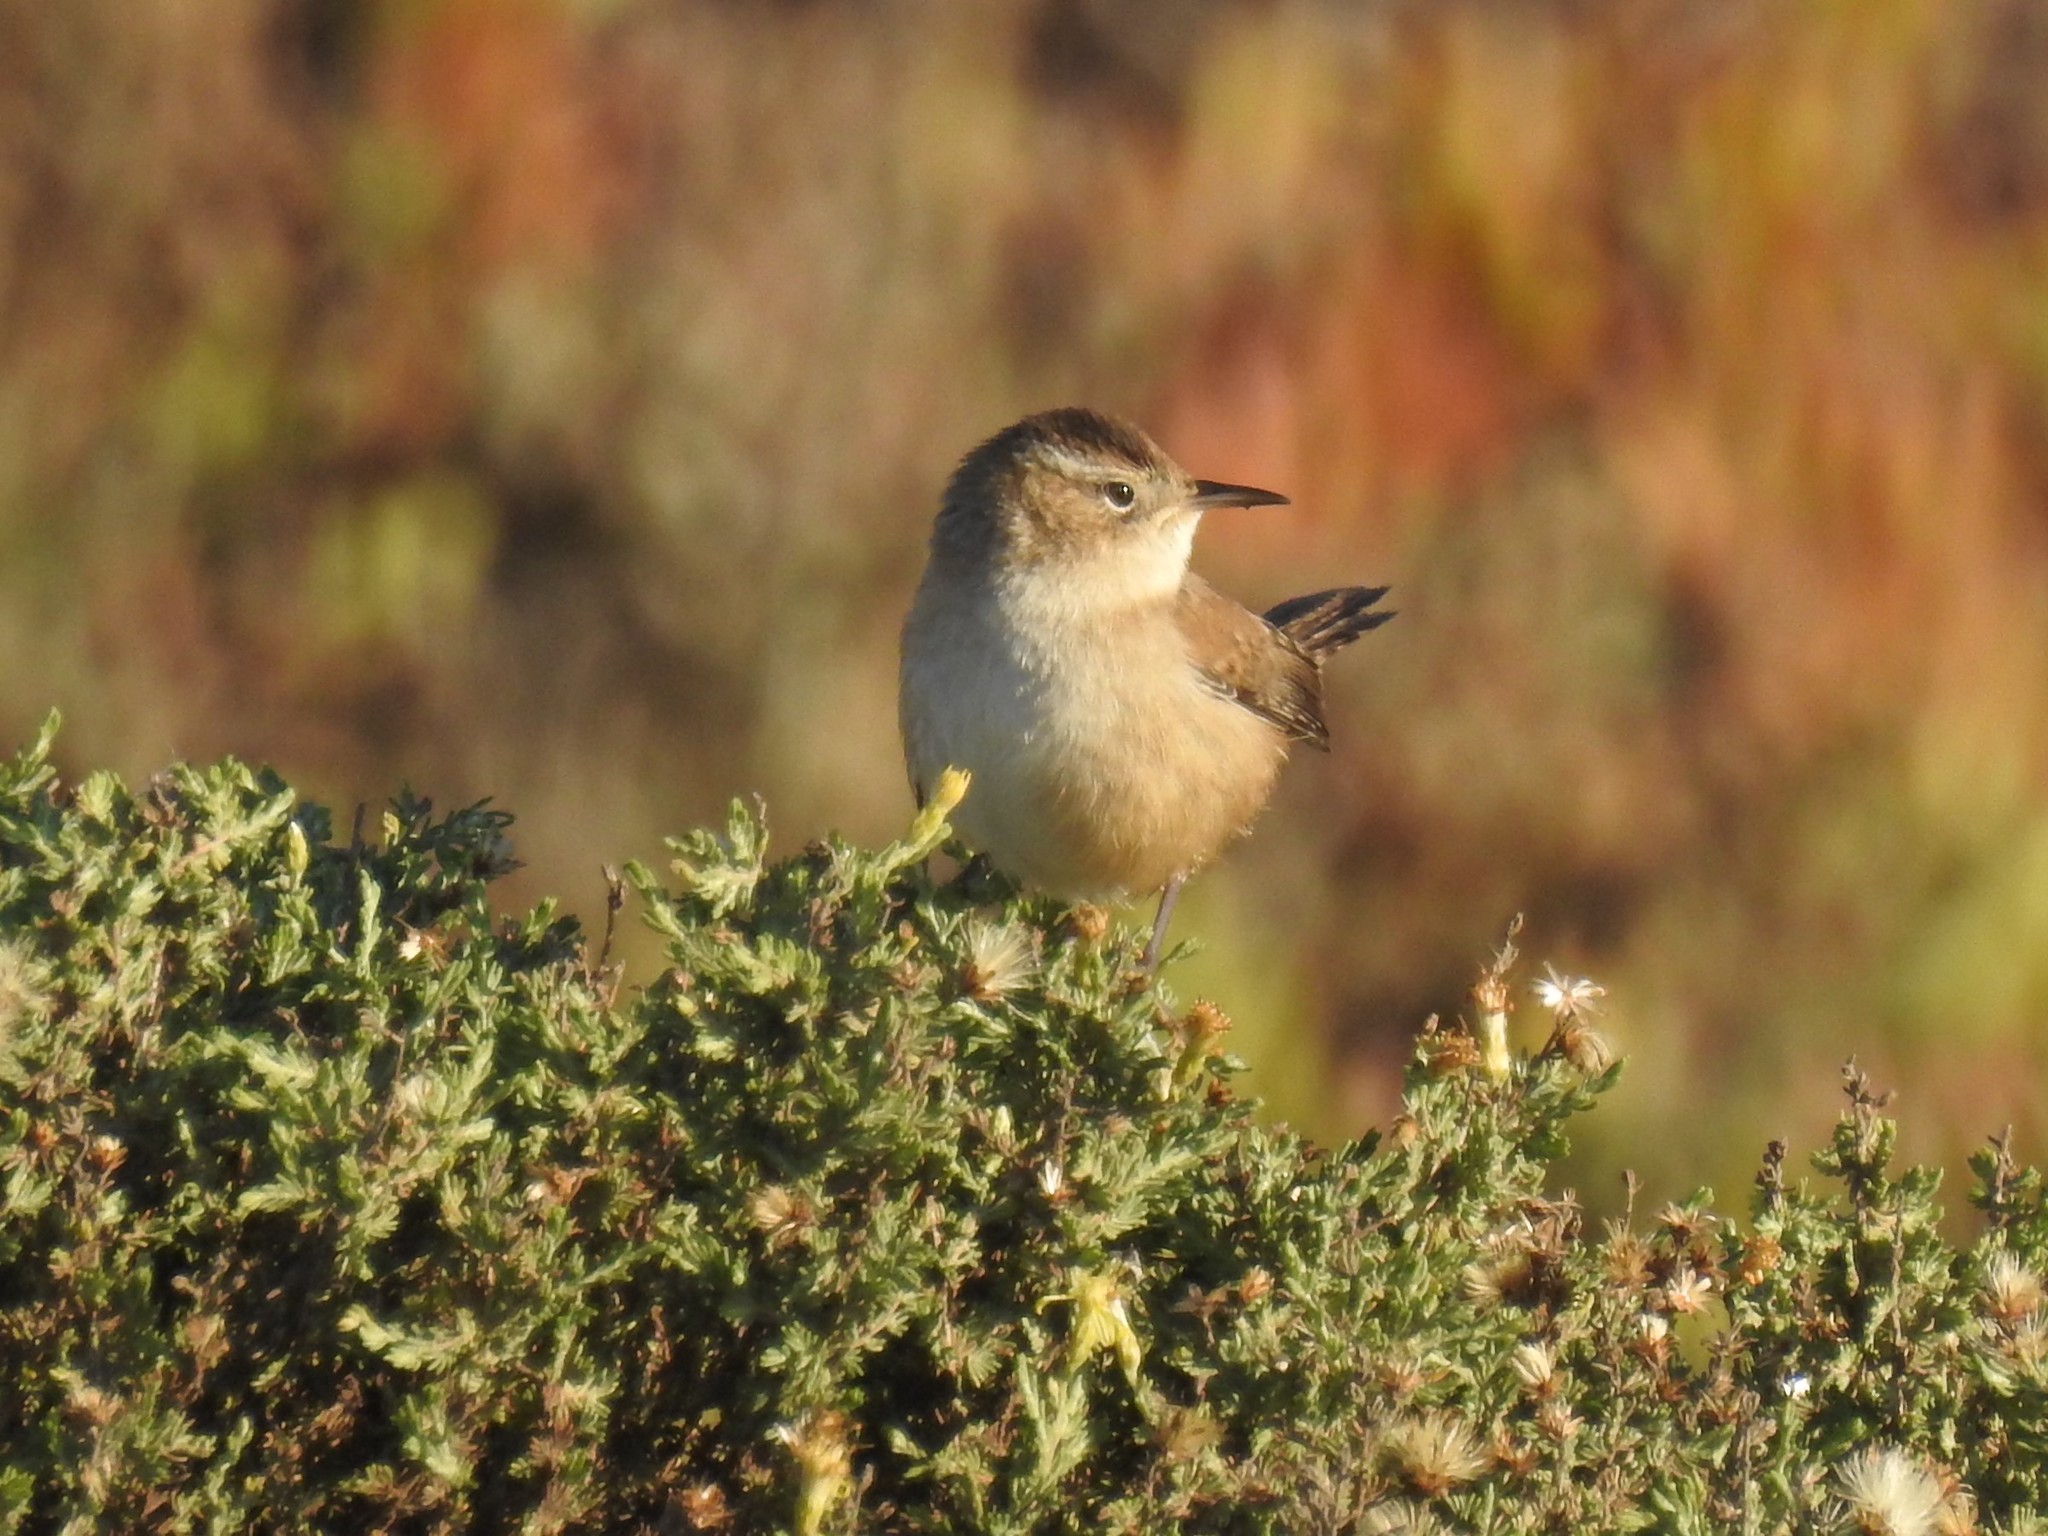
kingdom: Animalia
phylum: Chordata
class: Aves
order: Passeriformes
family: Troglodytidae
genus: Cistothorus
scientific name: Cistothorus palustris
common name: Marsh wren
